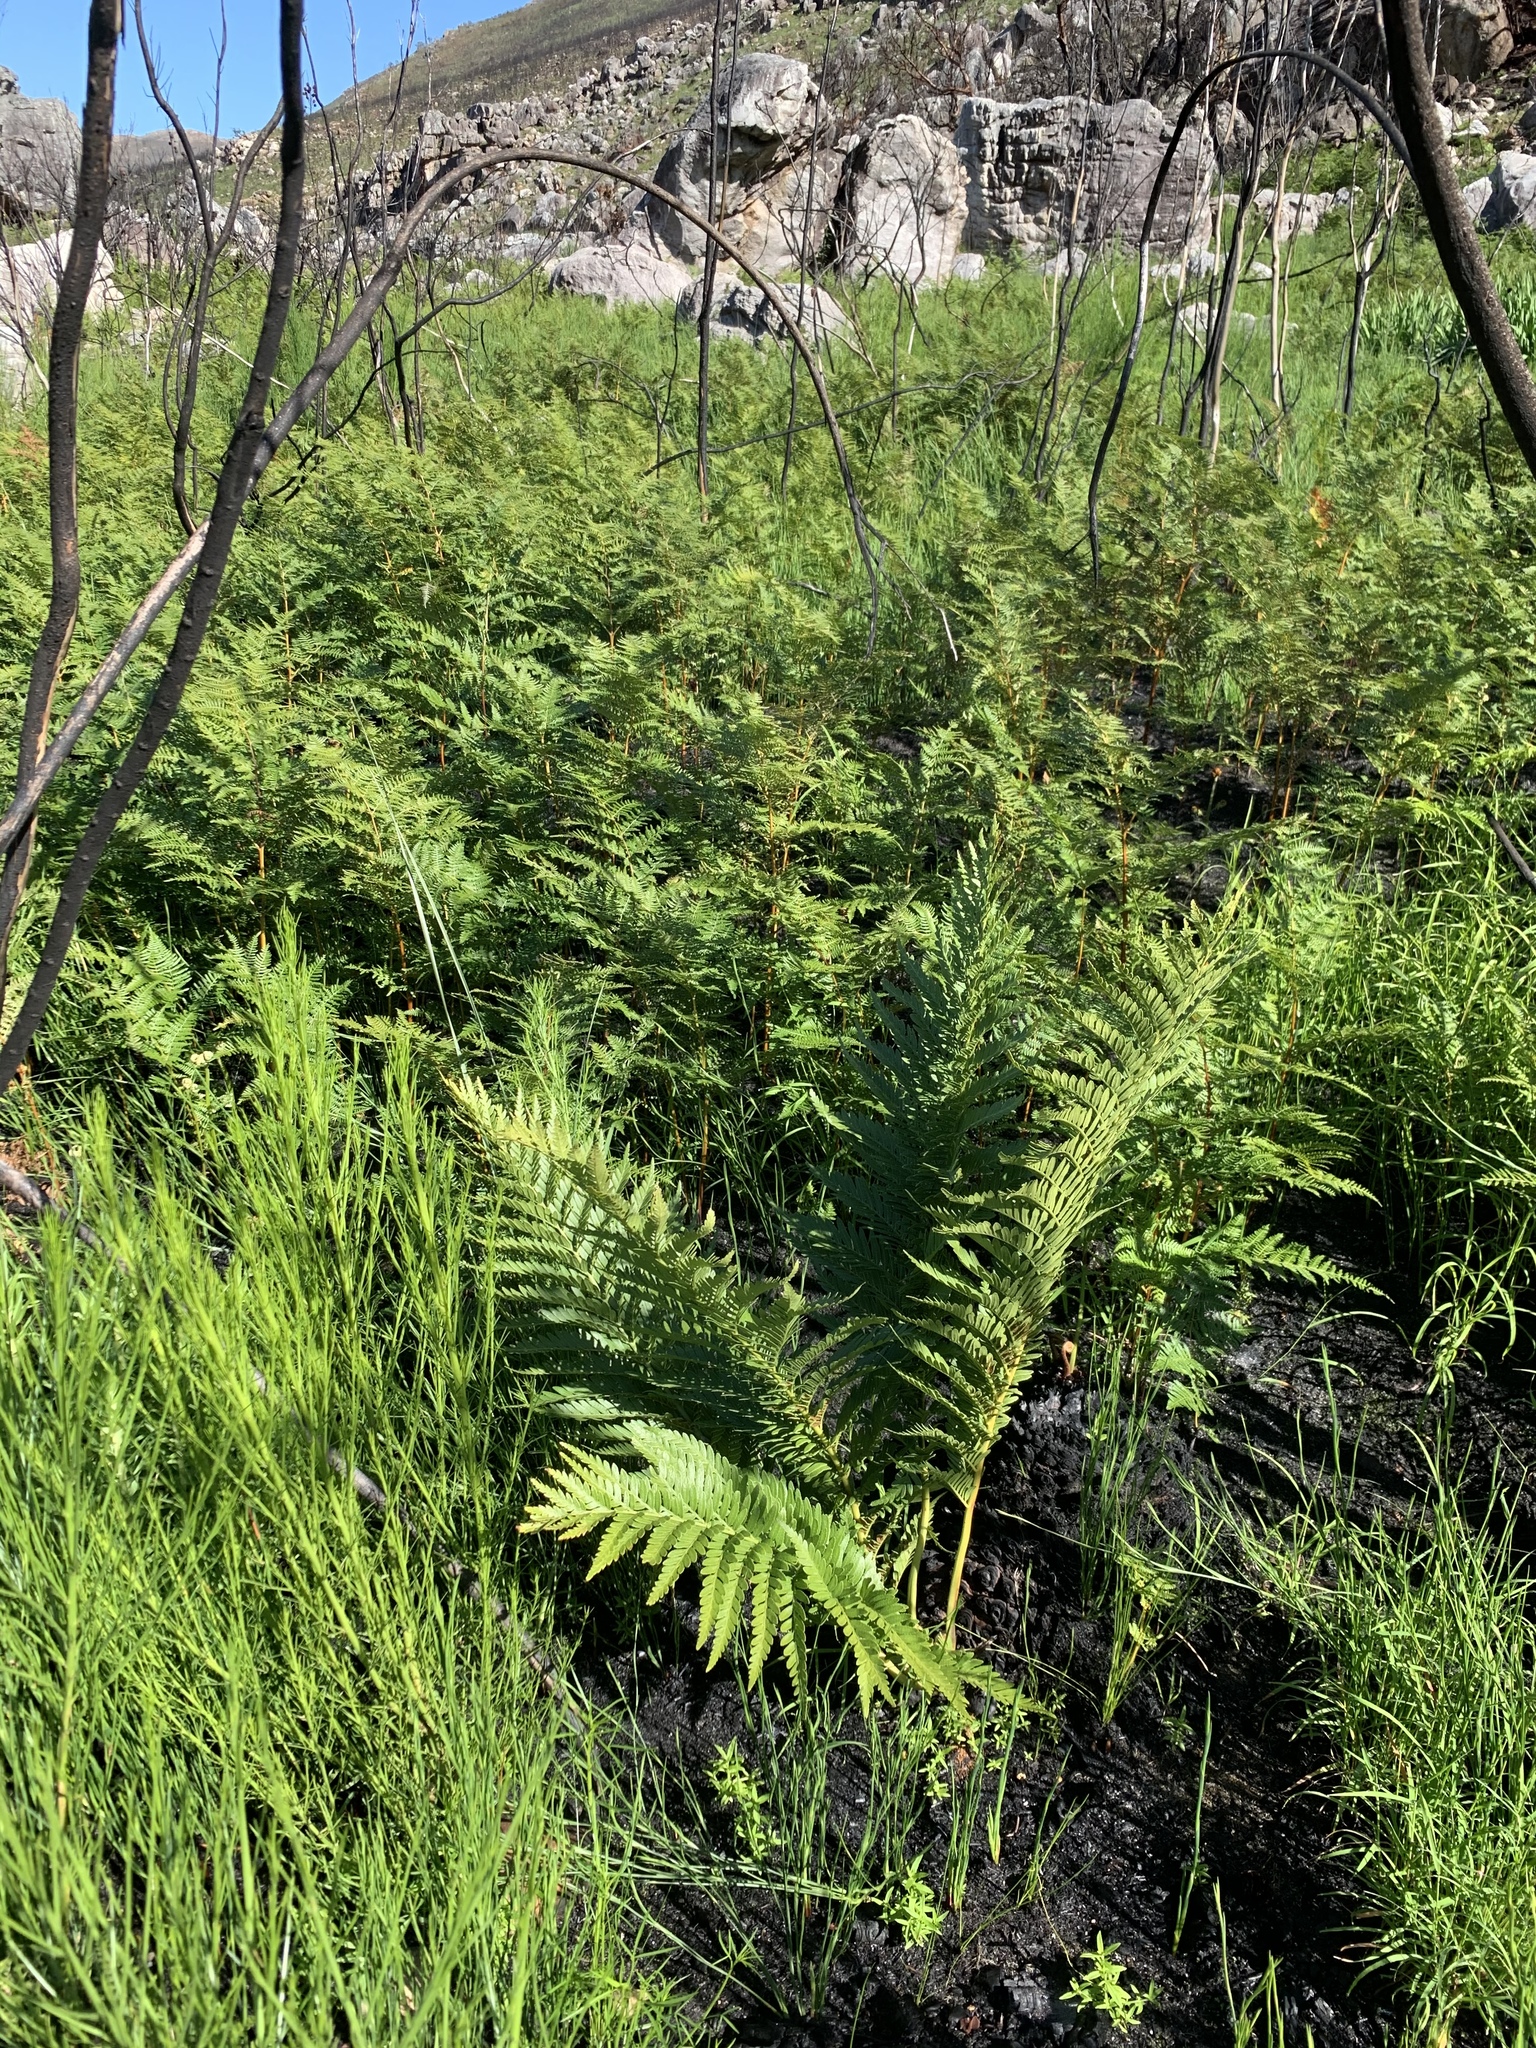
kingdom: Plantae
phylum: Tracheophyta
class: Polypodiopsida
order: Osmundales
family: Osmundaceae
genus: Todea
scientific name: Todea barbara
